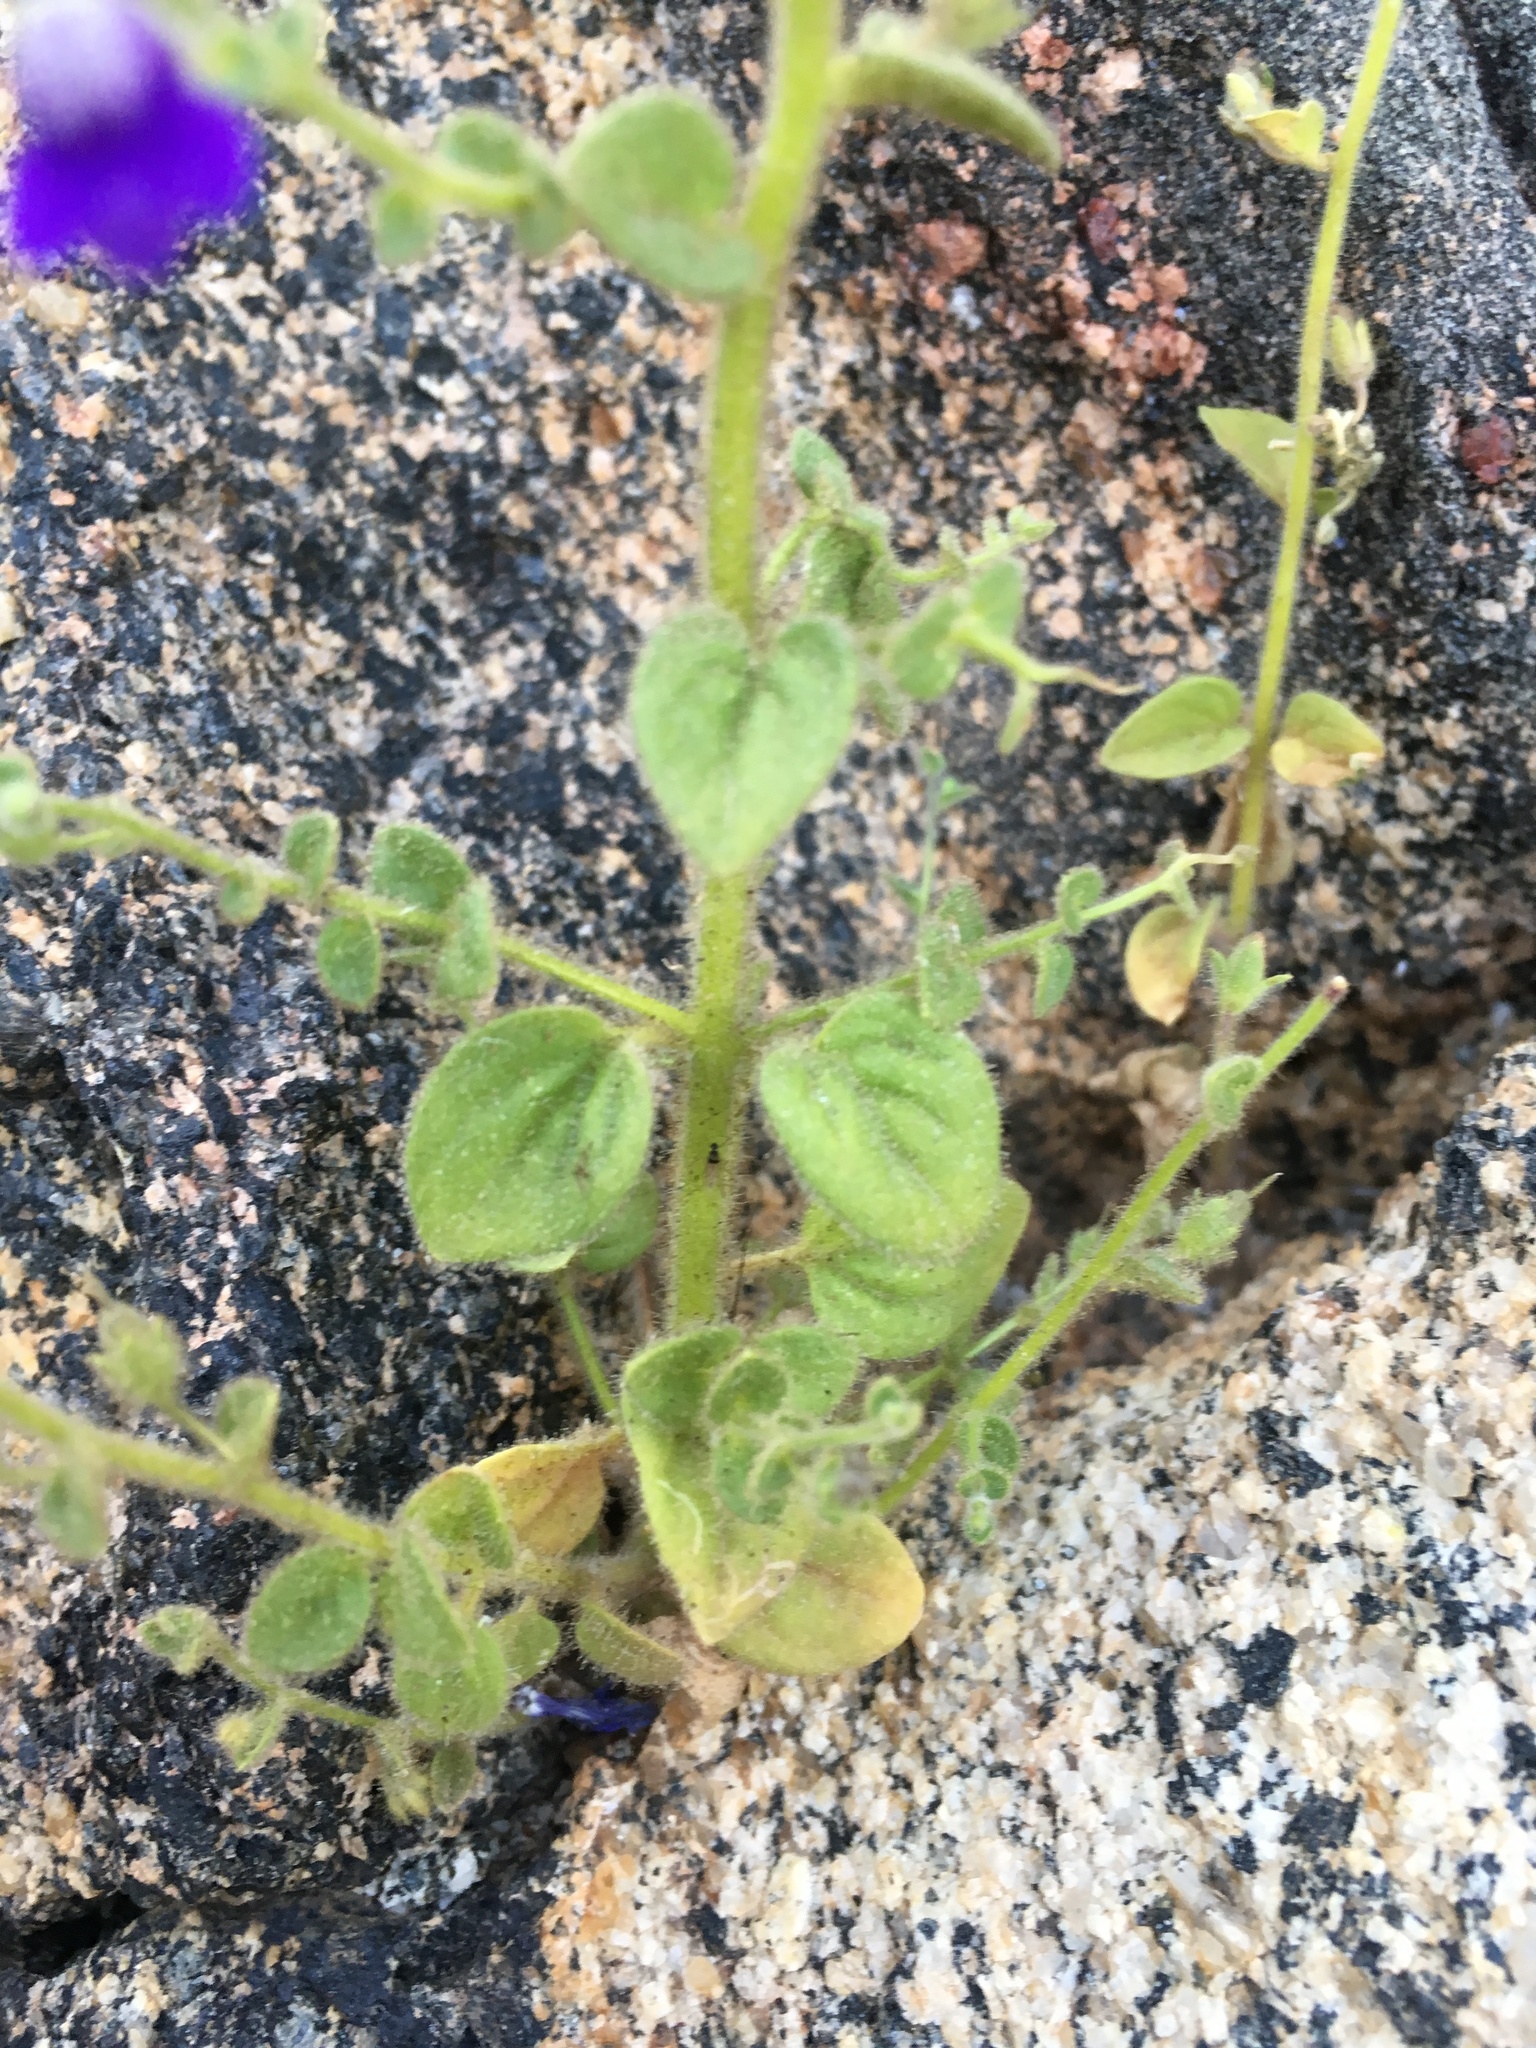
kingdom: Plantae
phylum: Tracheophyta
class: Magnoliopsida
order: Lamiales
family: Plantaginaceae
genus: Sairocarpus
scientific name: Sairocarpus nuttallianus
